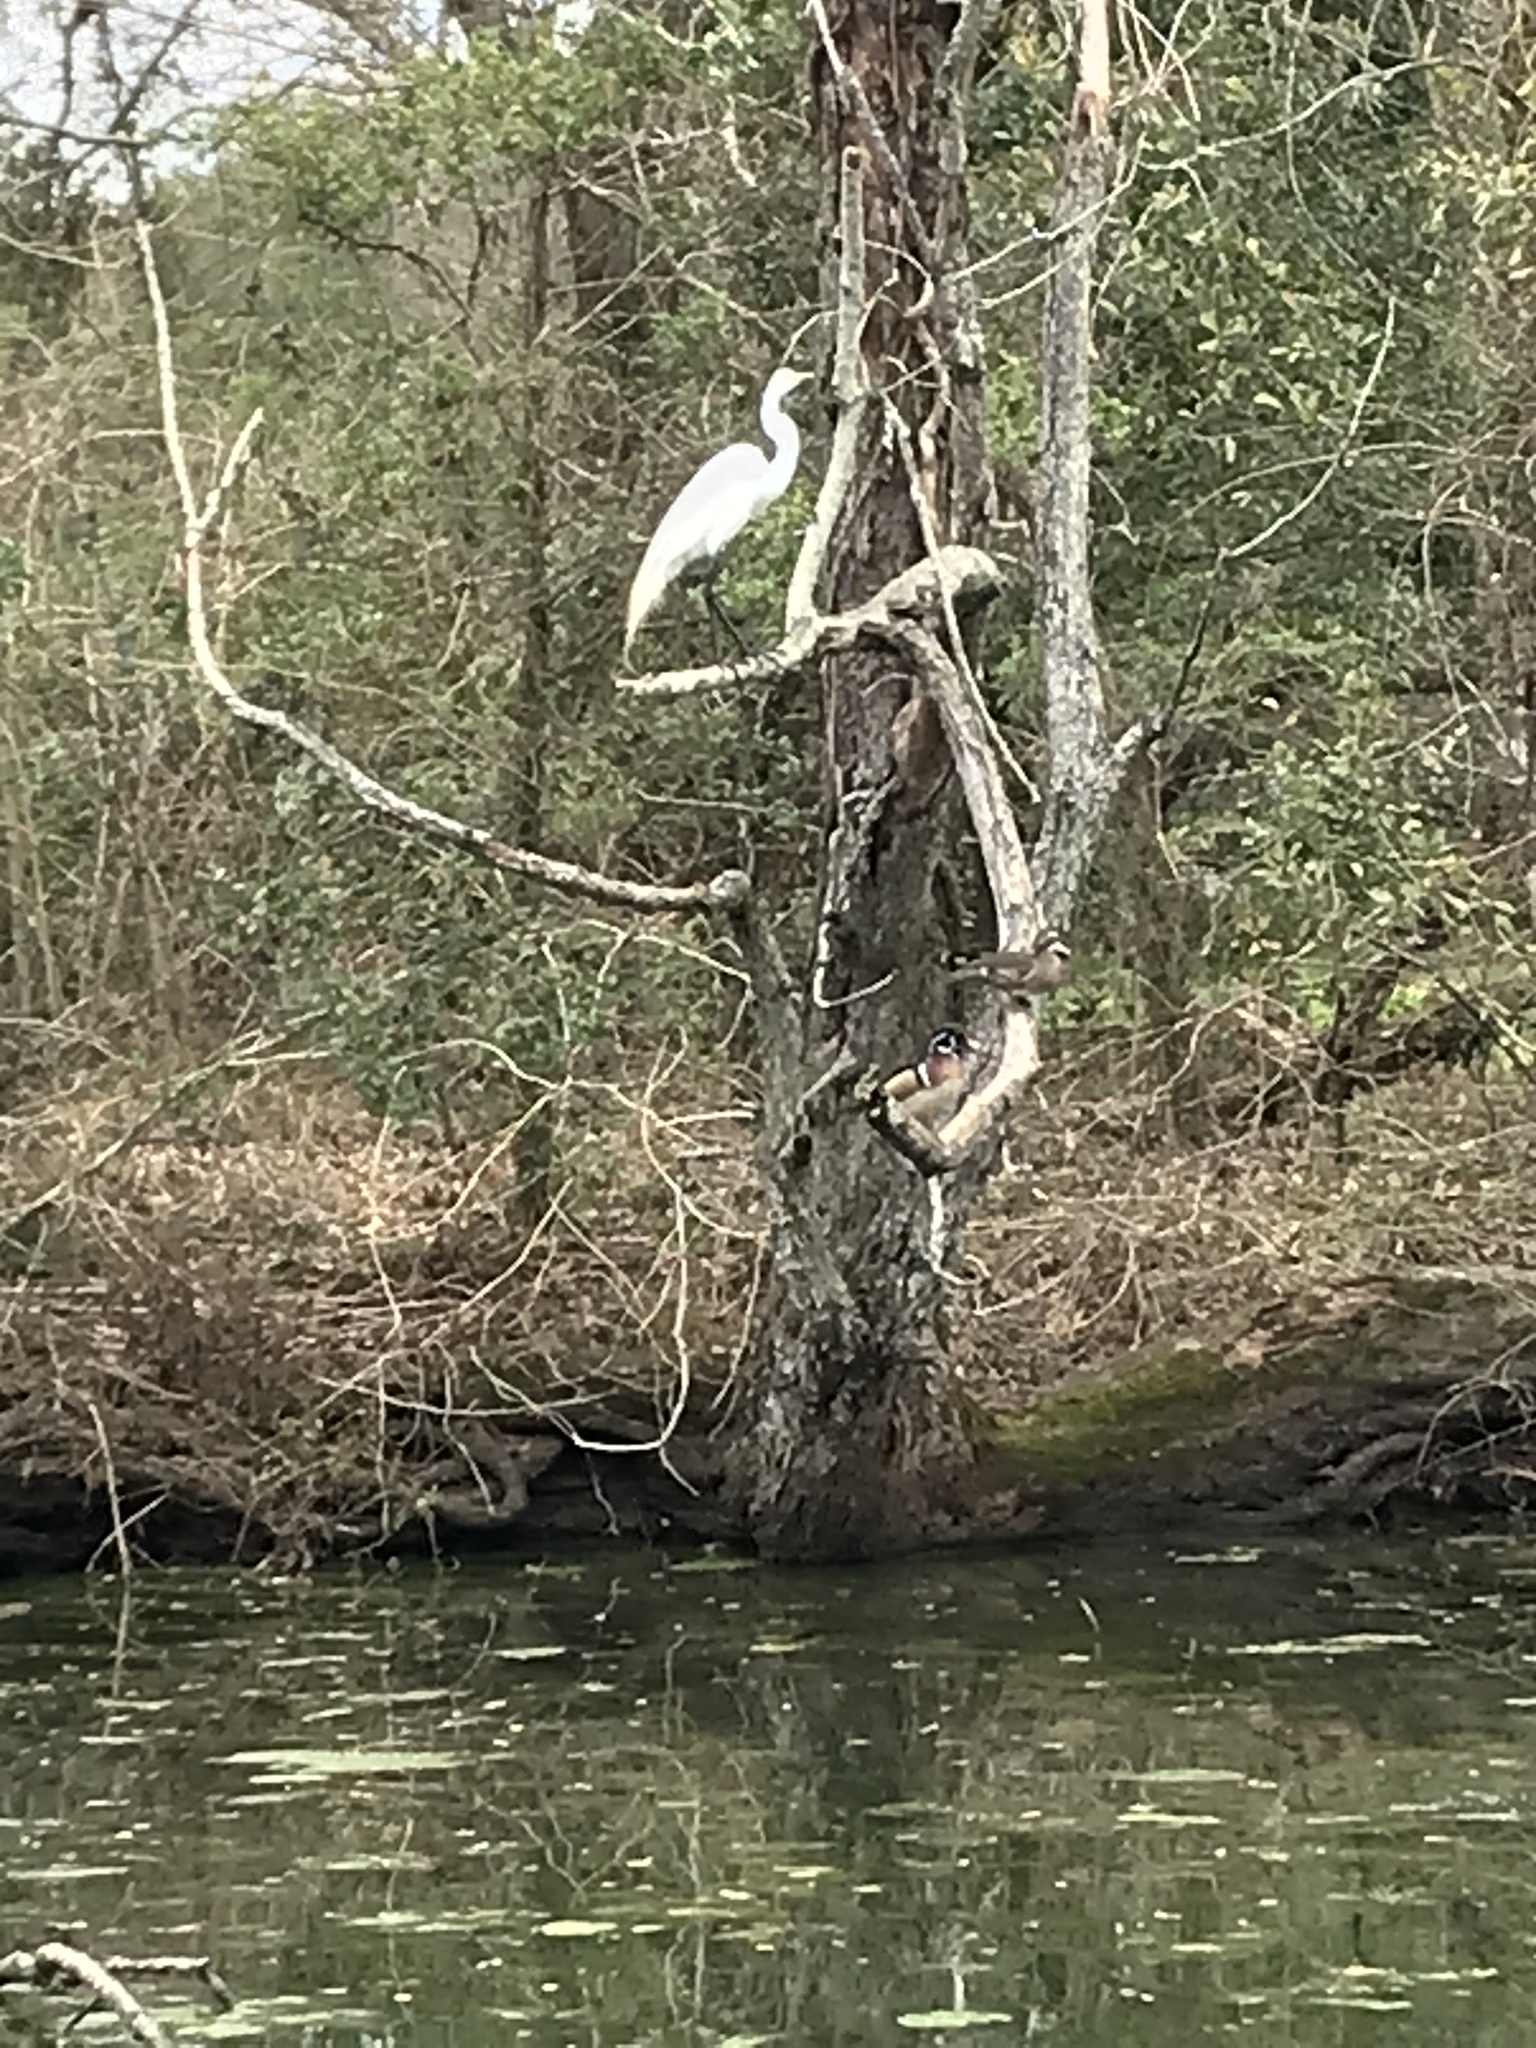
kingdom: Animalia
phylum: Chordata
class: Aves
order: Anseriformes
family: Anatidae
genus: Aix
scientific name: Aix sponsa
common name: Wood duck
